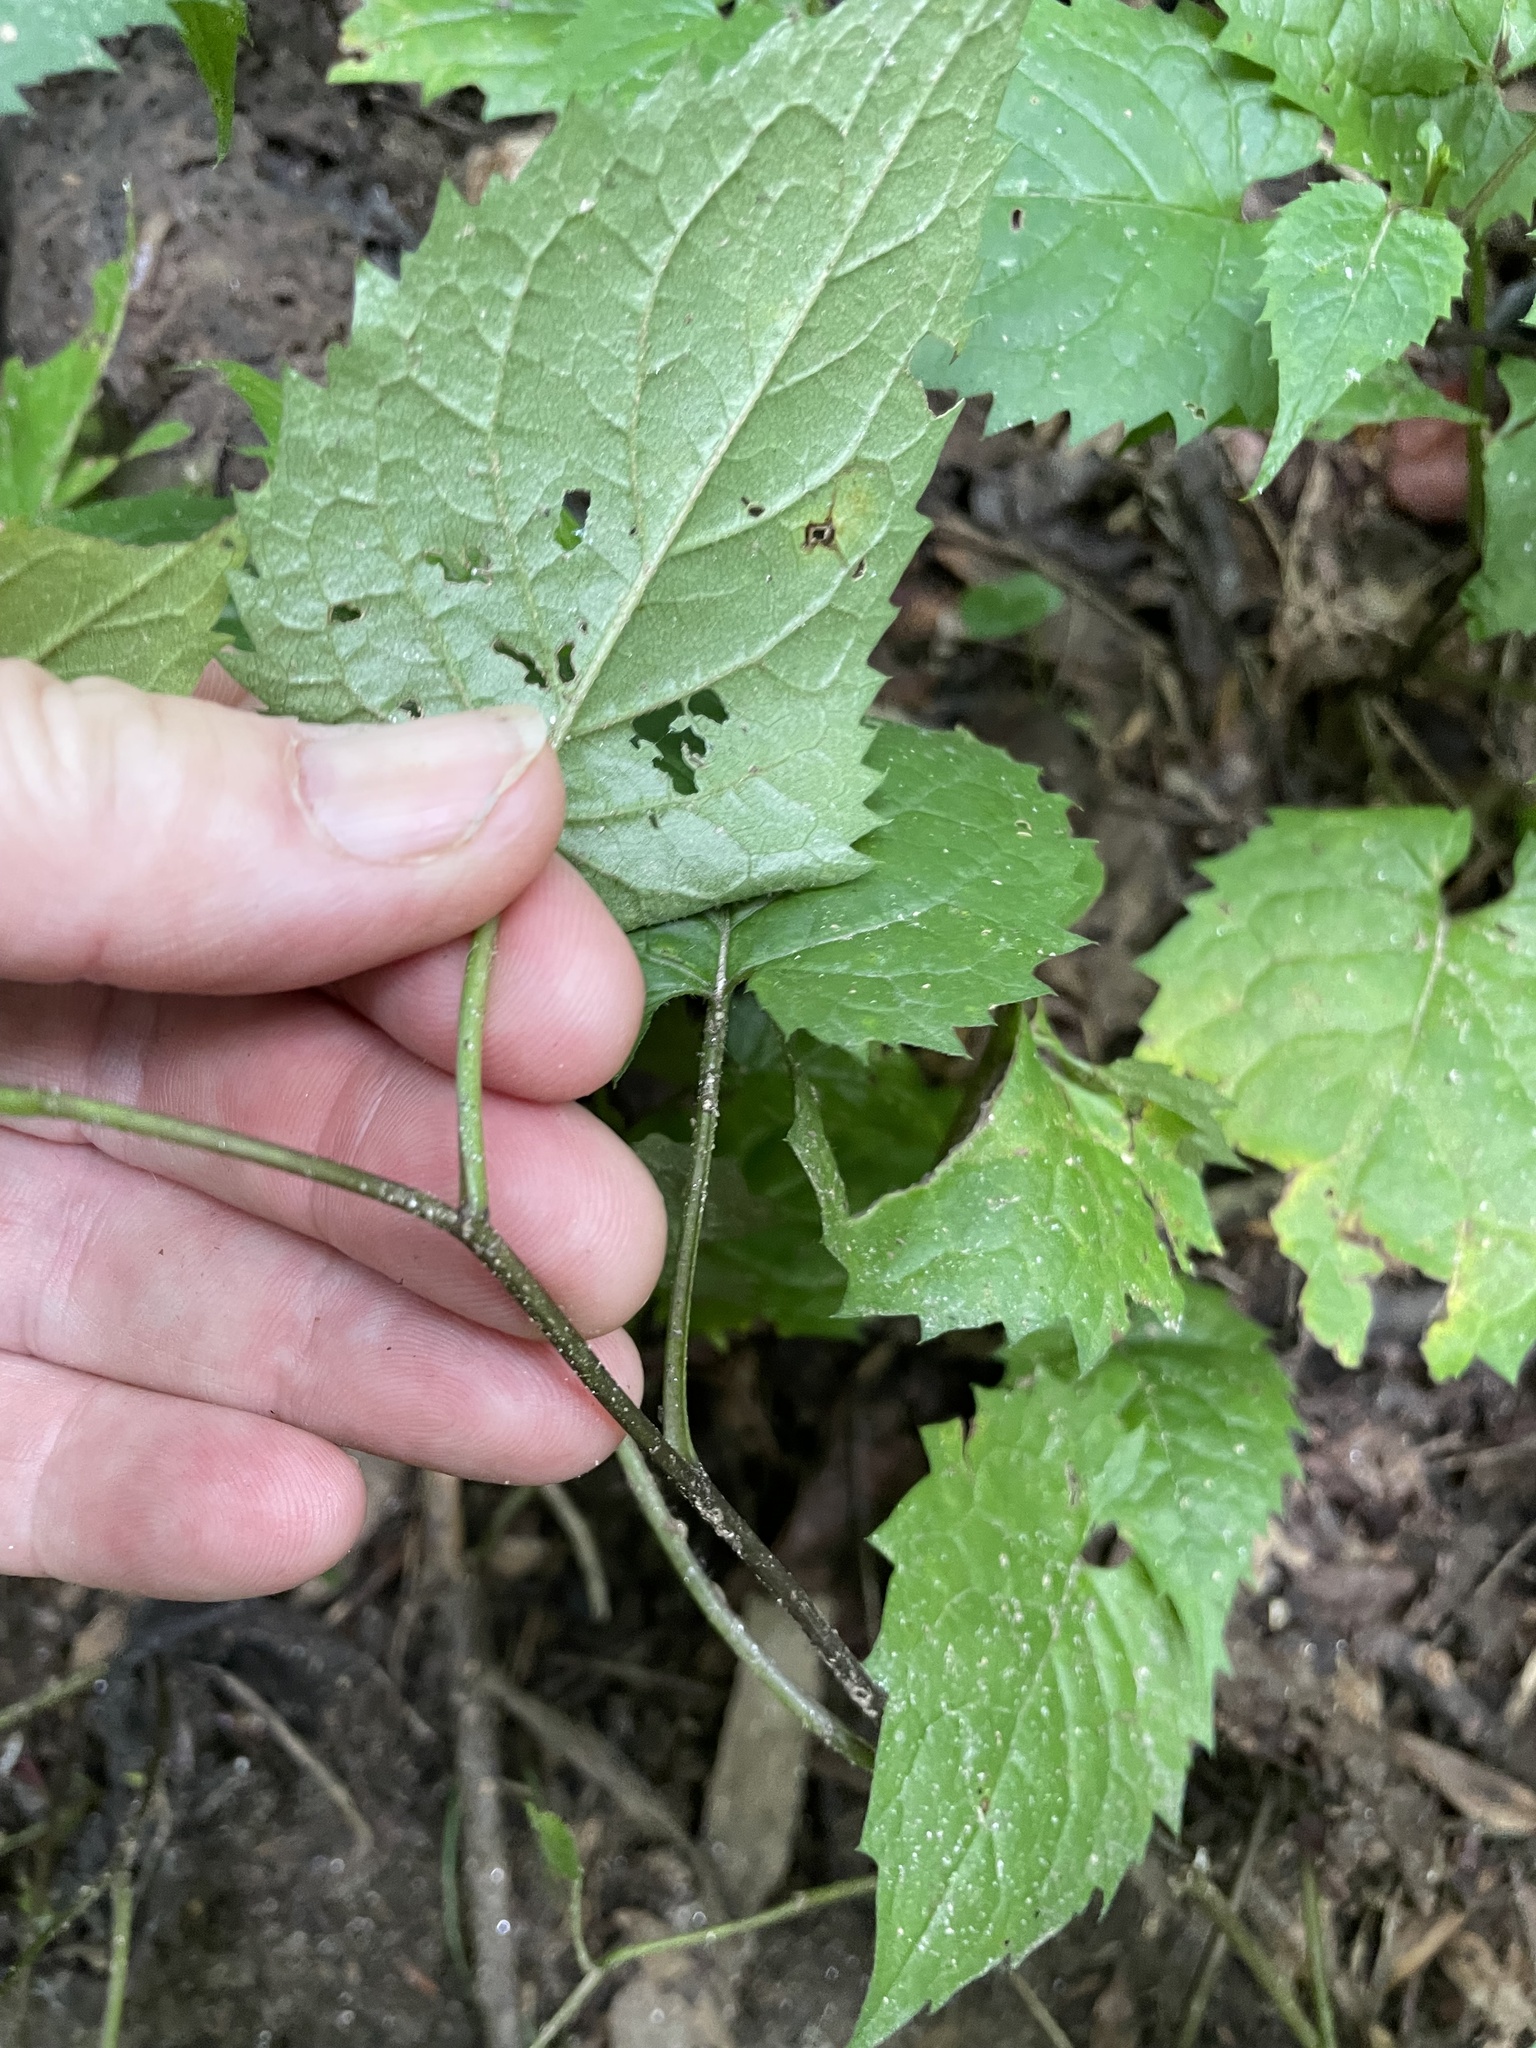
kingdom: Plantae
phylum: Tracheophyta
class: Magnoliopsida
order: Asterales
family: Asteraceae
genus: Eurybia
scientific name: Eurybia divaricata
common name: White wood aster
